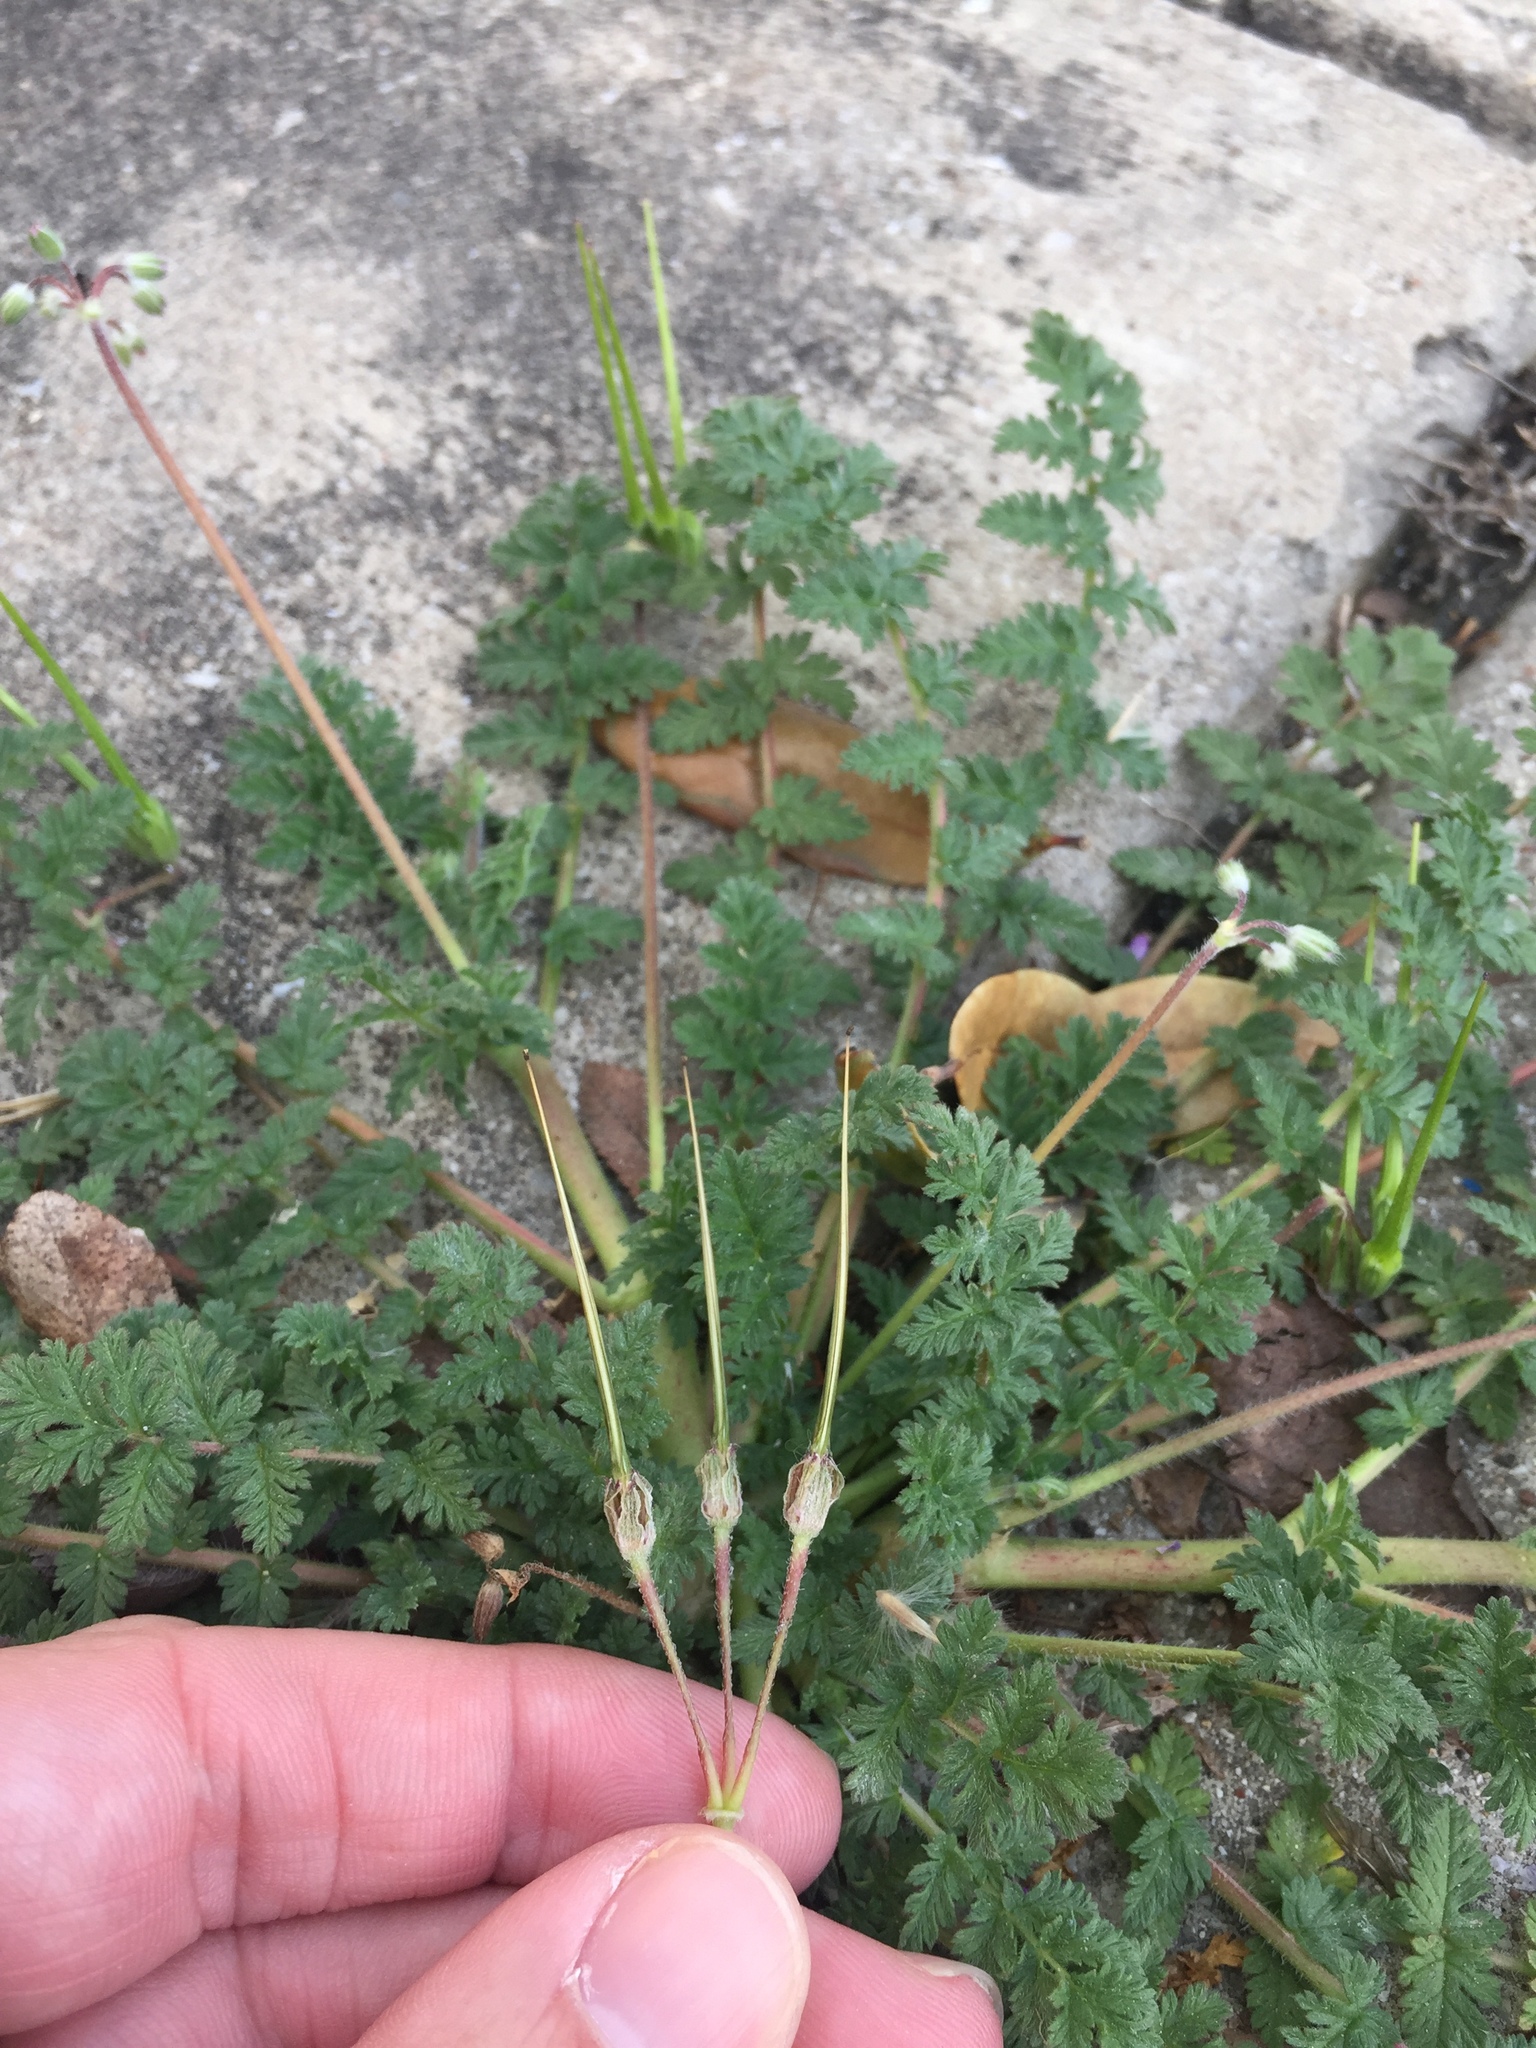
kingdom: Plantae
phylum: Tracheophyta
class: Magnoliopsida
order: Geraniales
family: Geraniaceae
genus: Erodium
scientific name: Erodium cicutarium
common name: Common stork's-bill
